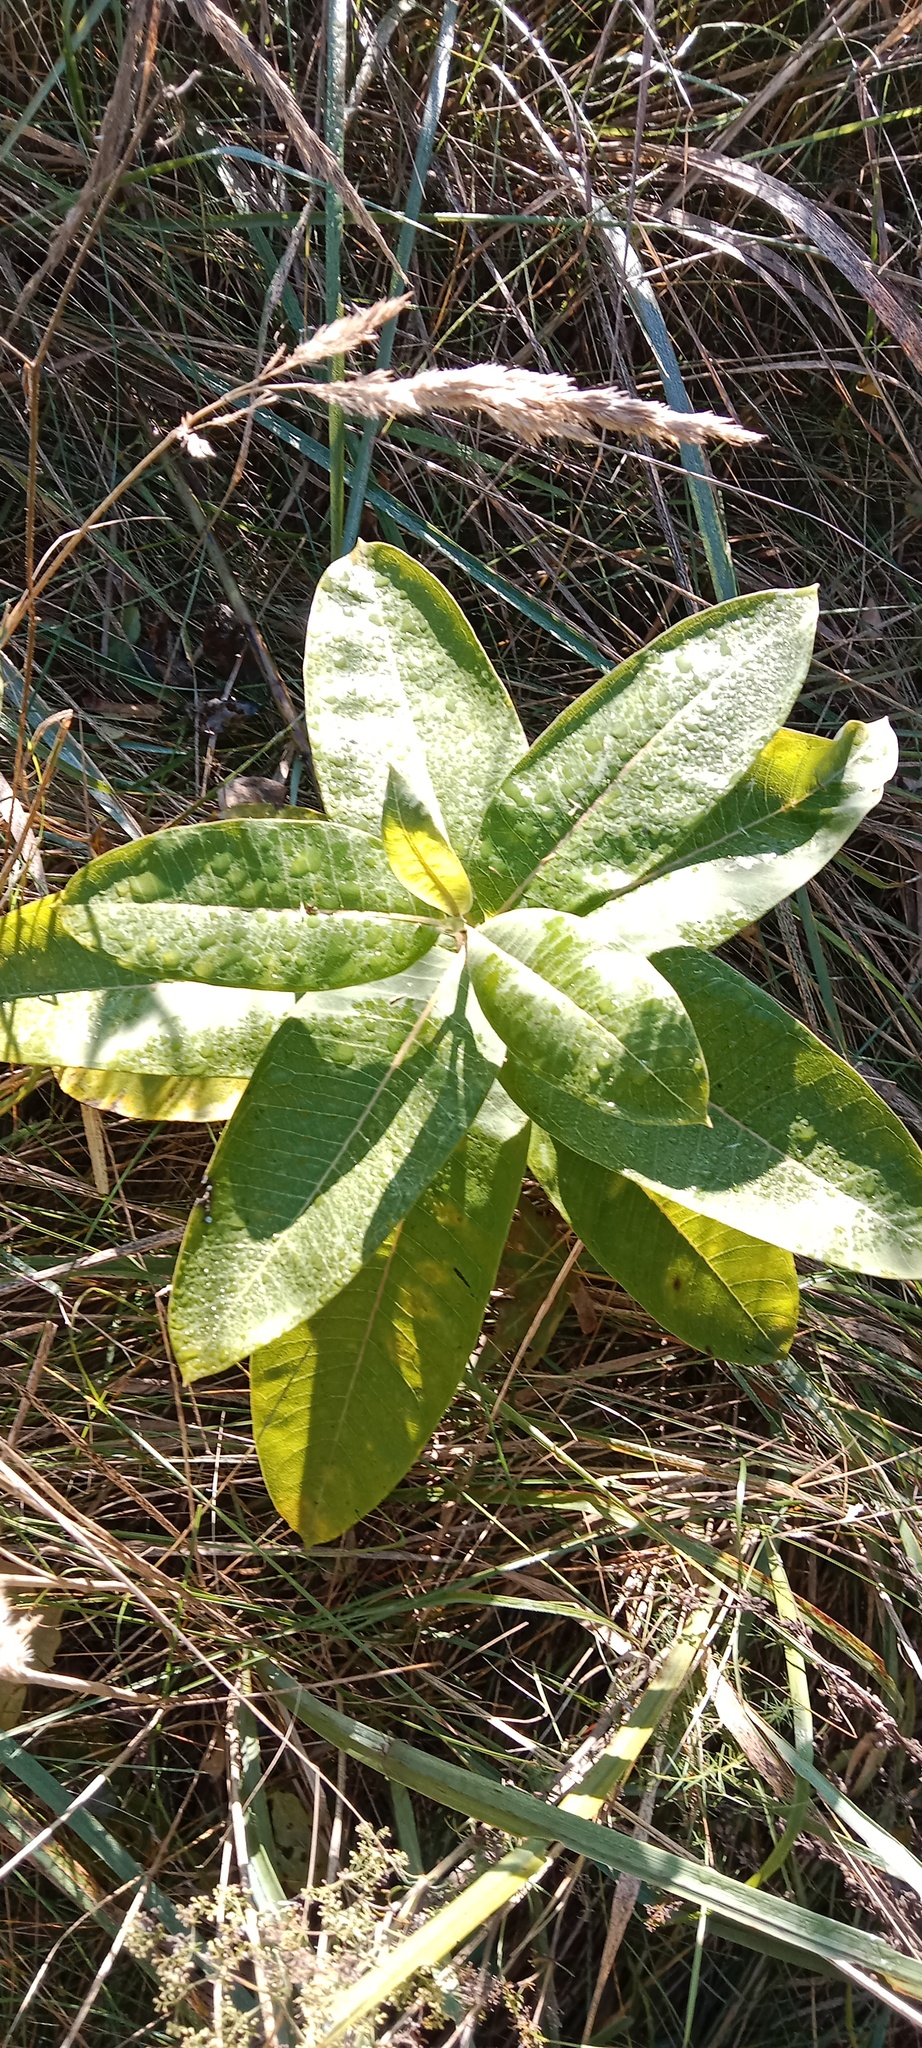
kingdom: Plantae
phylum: Tracheophyta
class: Magnoliopsida
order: Gentianales
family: Apocynaceae
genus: Asclepias
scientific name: Asclepias syriaca
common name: Common milkweed
